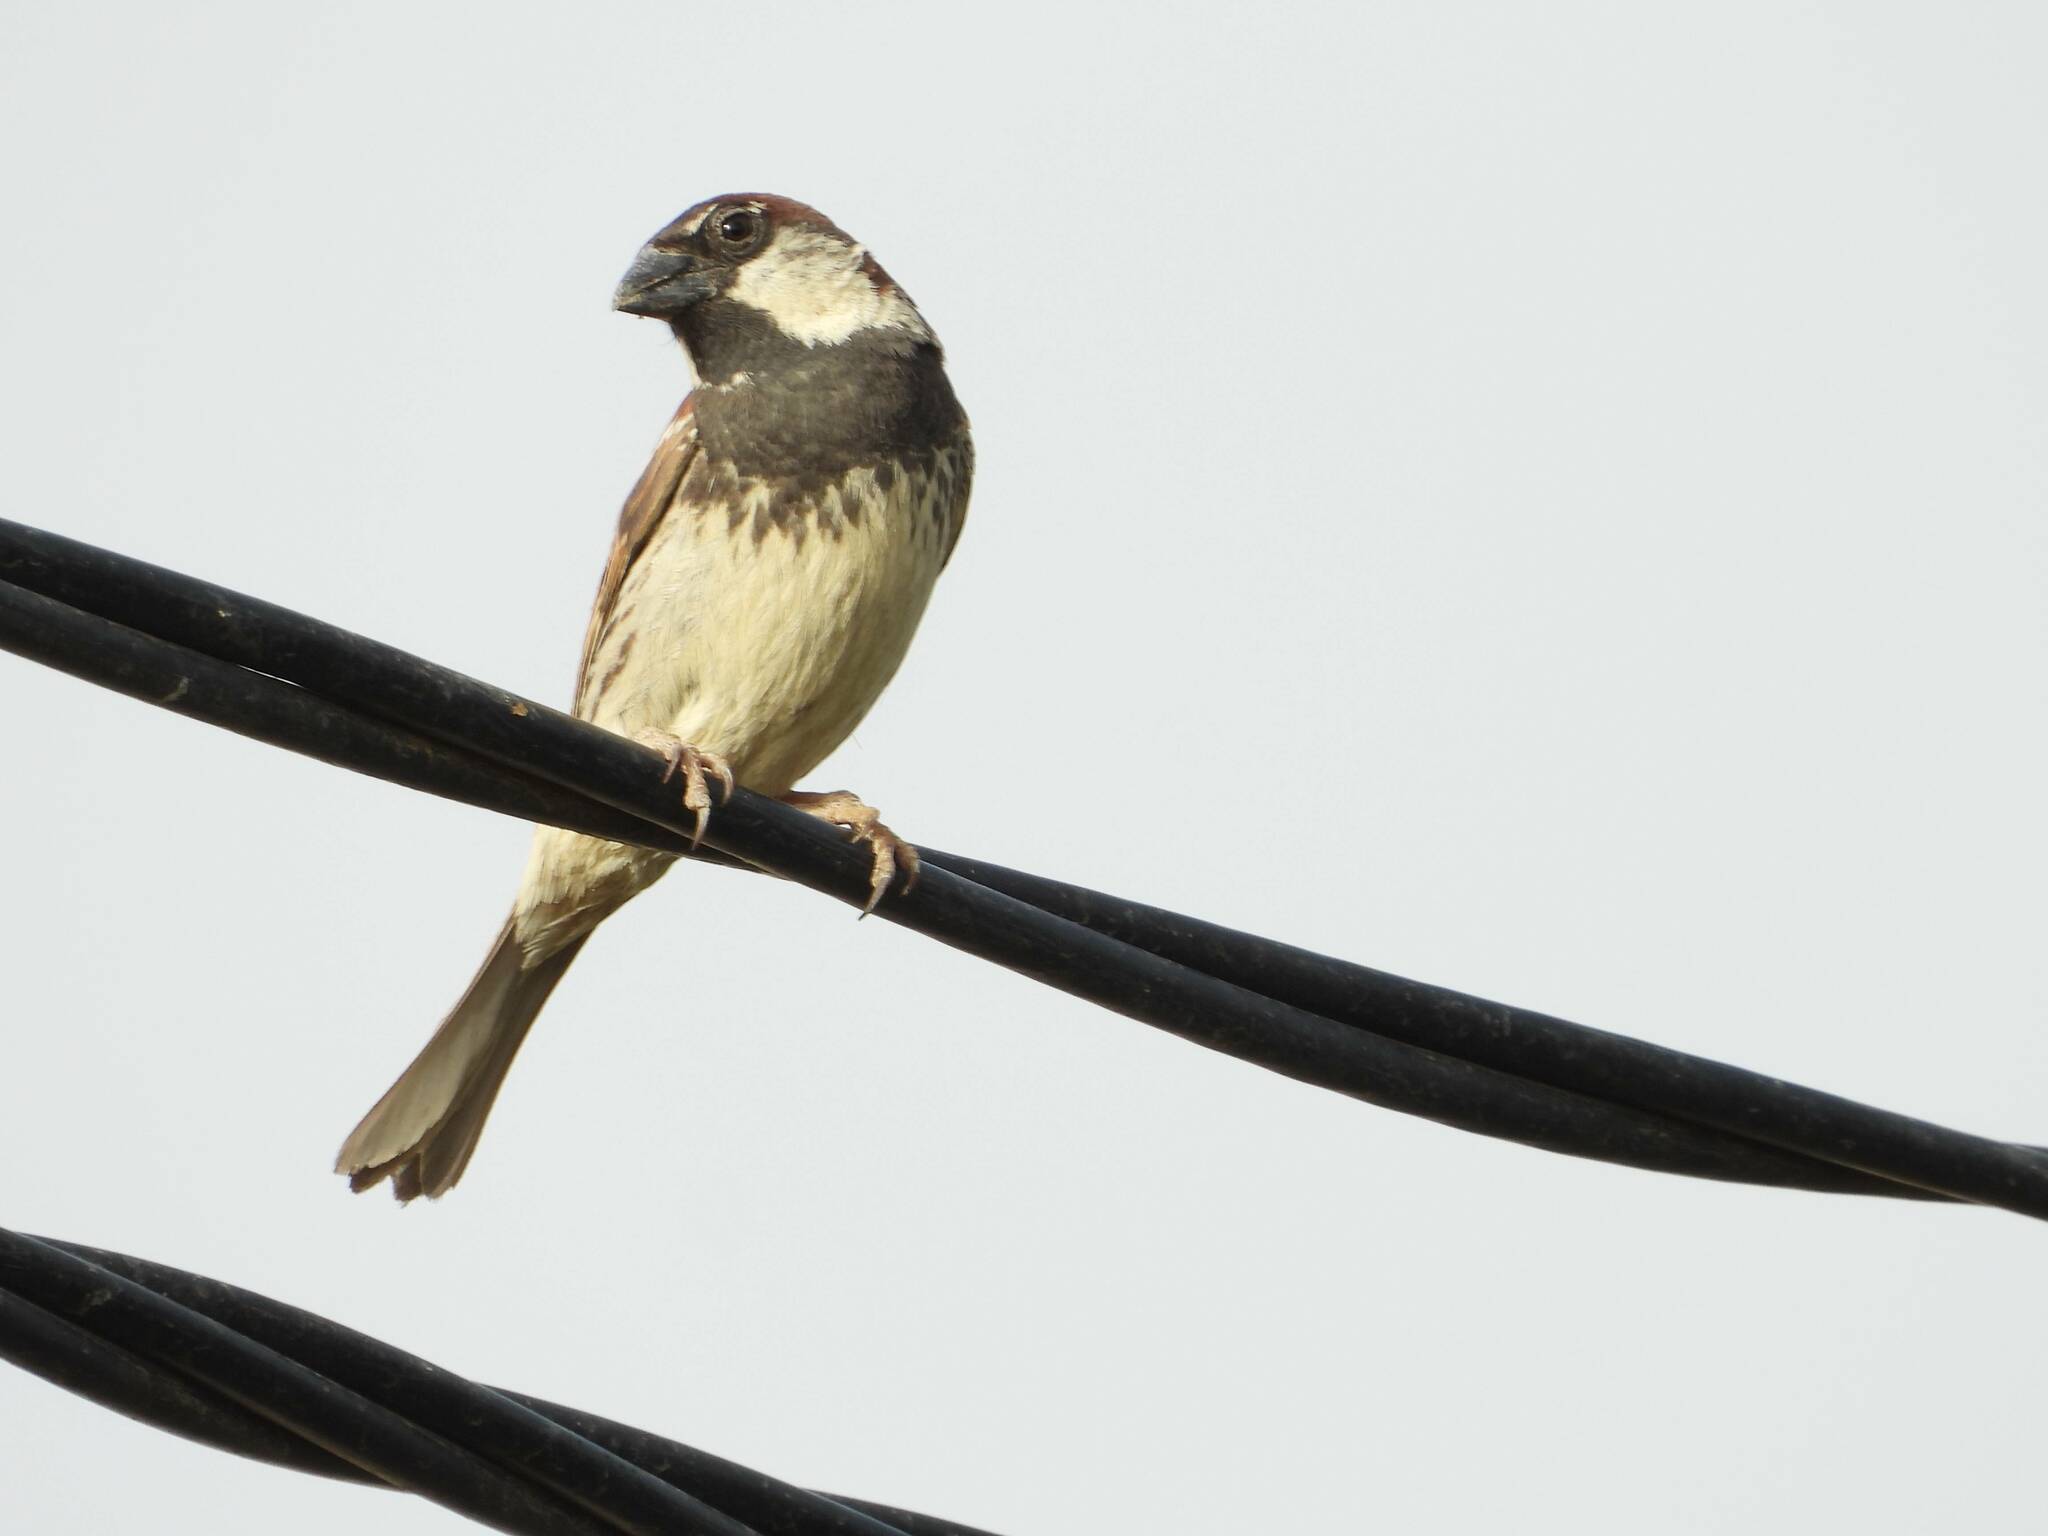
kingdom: Animalia
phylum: Chordata
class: Aves
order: Passeriformes
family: Passeridae
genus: Passer
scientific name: Passer hispaniolensis
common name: Spanish sparrow
